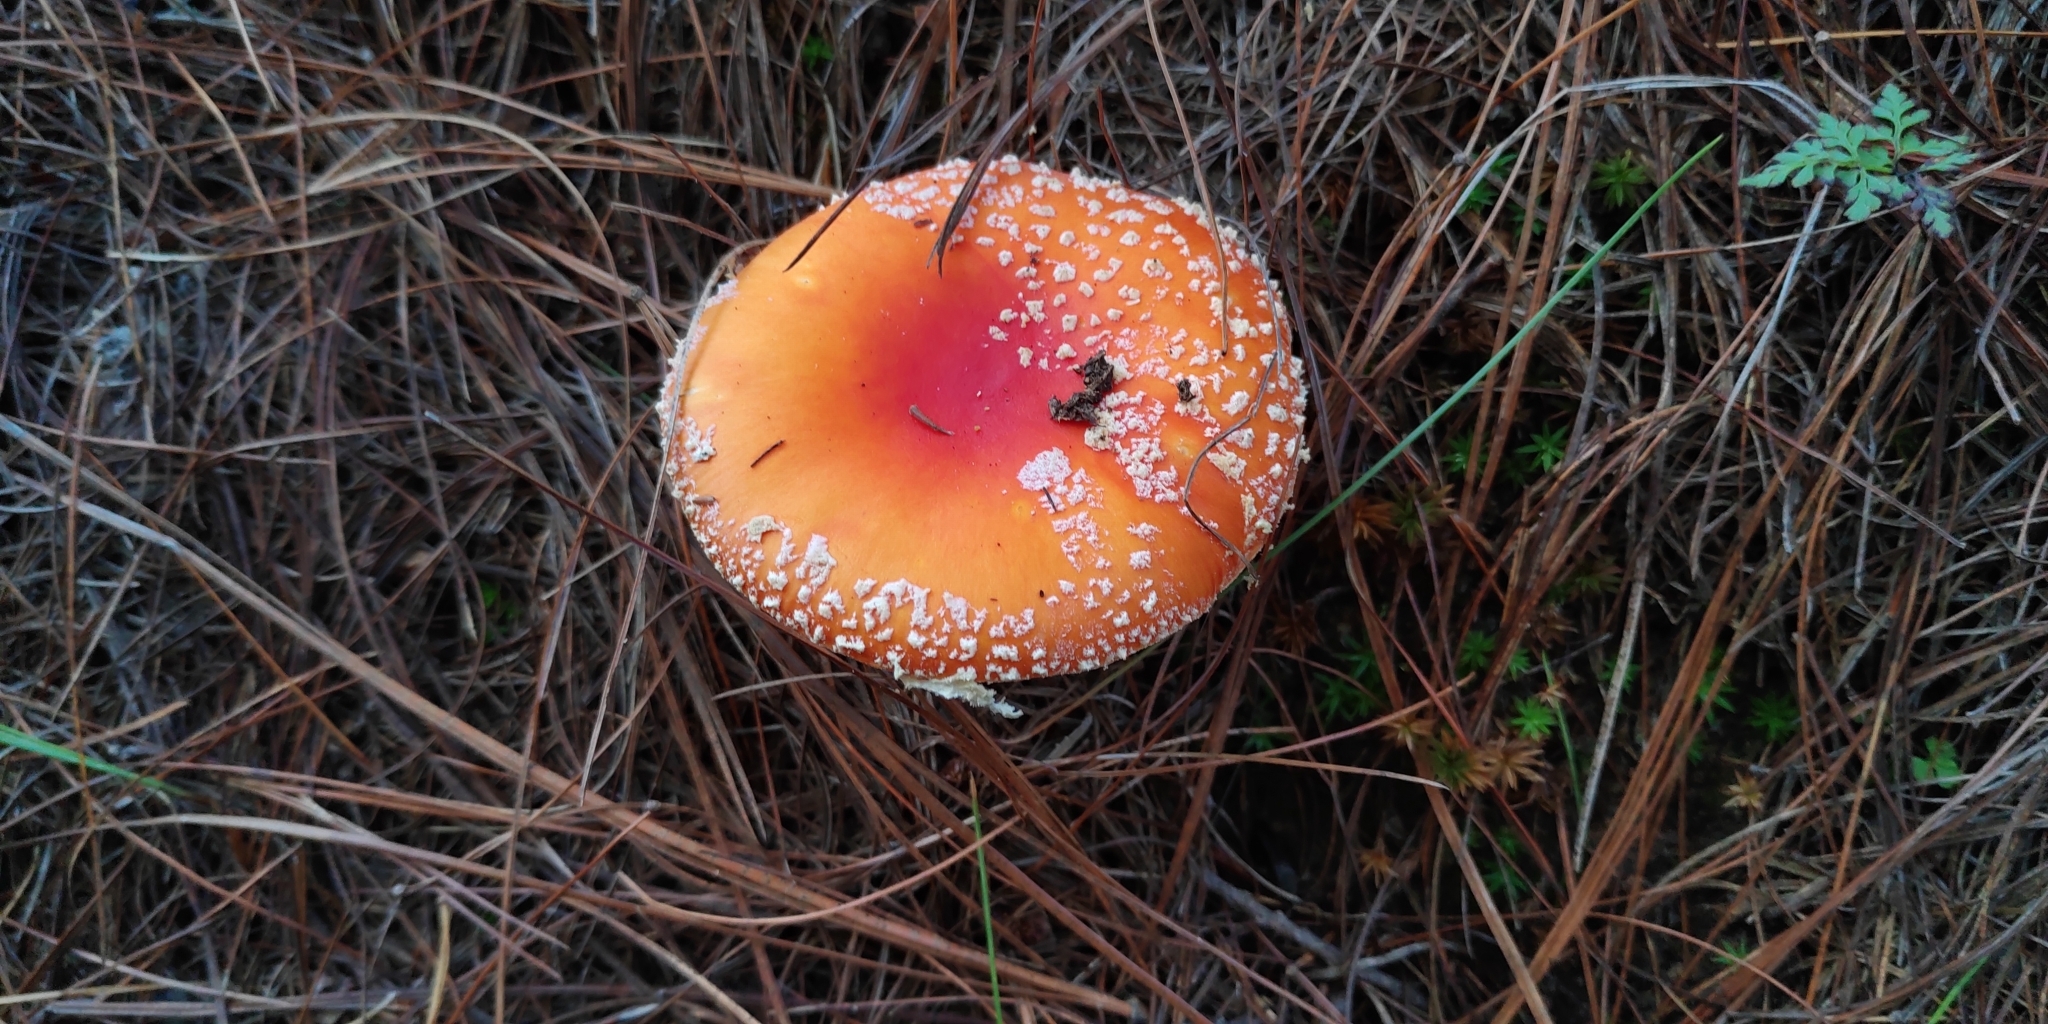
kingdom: Fungi
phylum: Basidiomycota
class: Agaricomycetes
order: Agaricales
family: Amanitaceae
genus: Amanita
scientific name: Amanita muscaria
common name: Fly agaric
